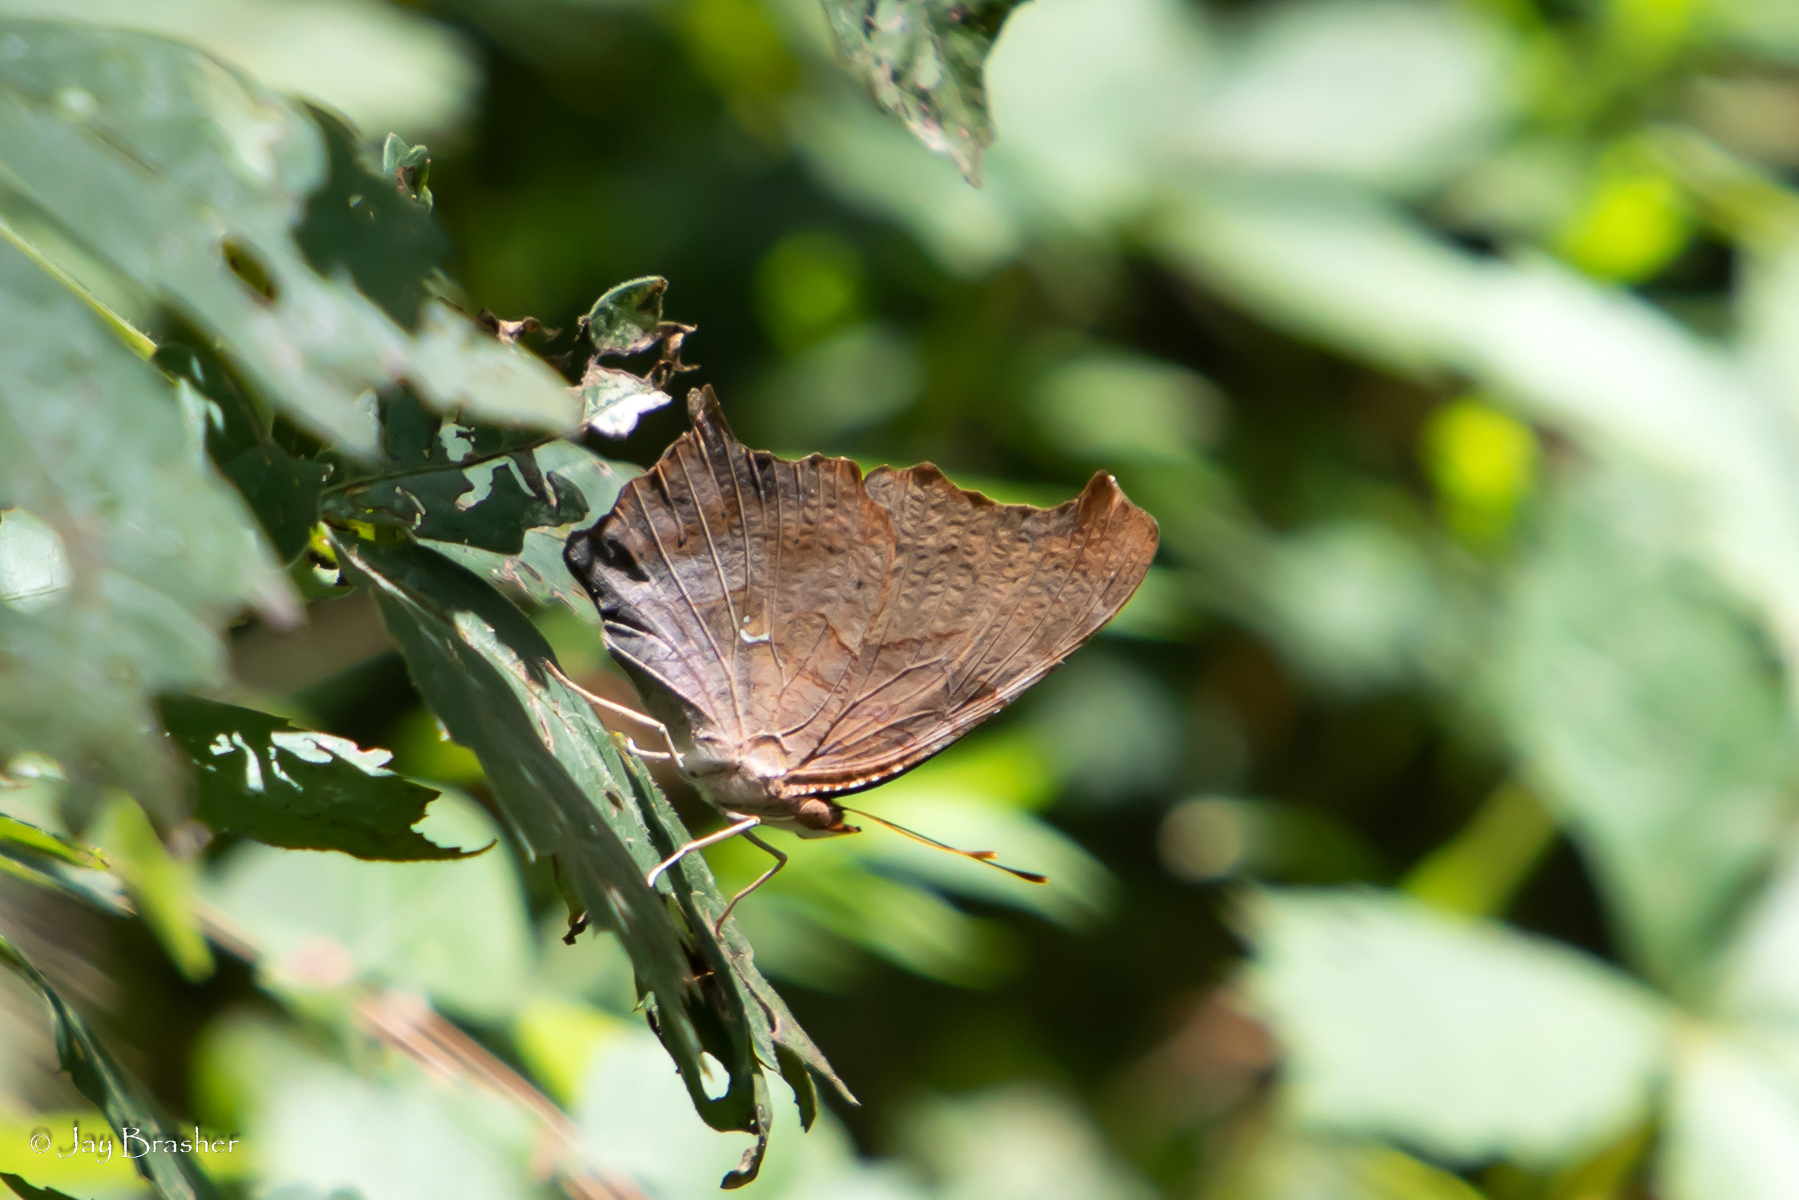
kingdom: Animalia
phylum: Arthropoda
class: Insecta
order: Lepidoptera
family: Nymphalidae
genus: Polygonia
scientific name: Polygonia interrogationis
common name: Question mark
